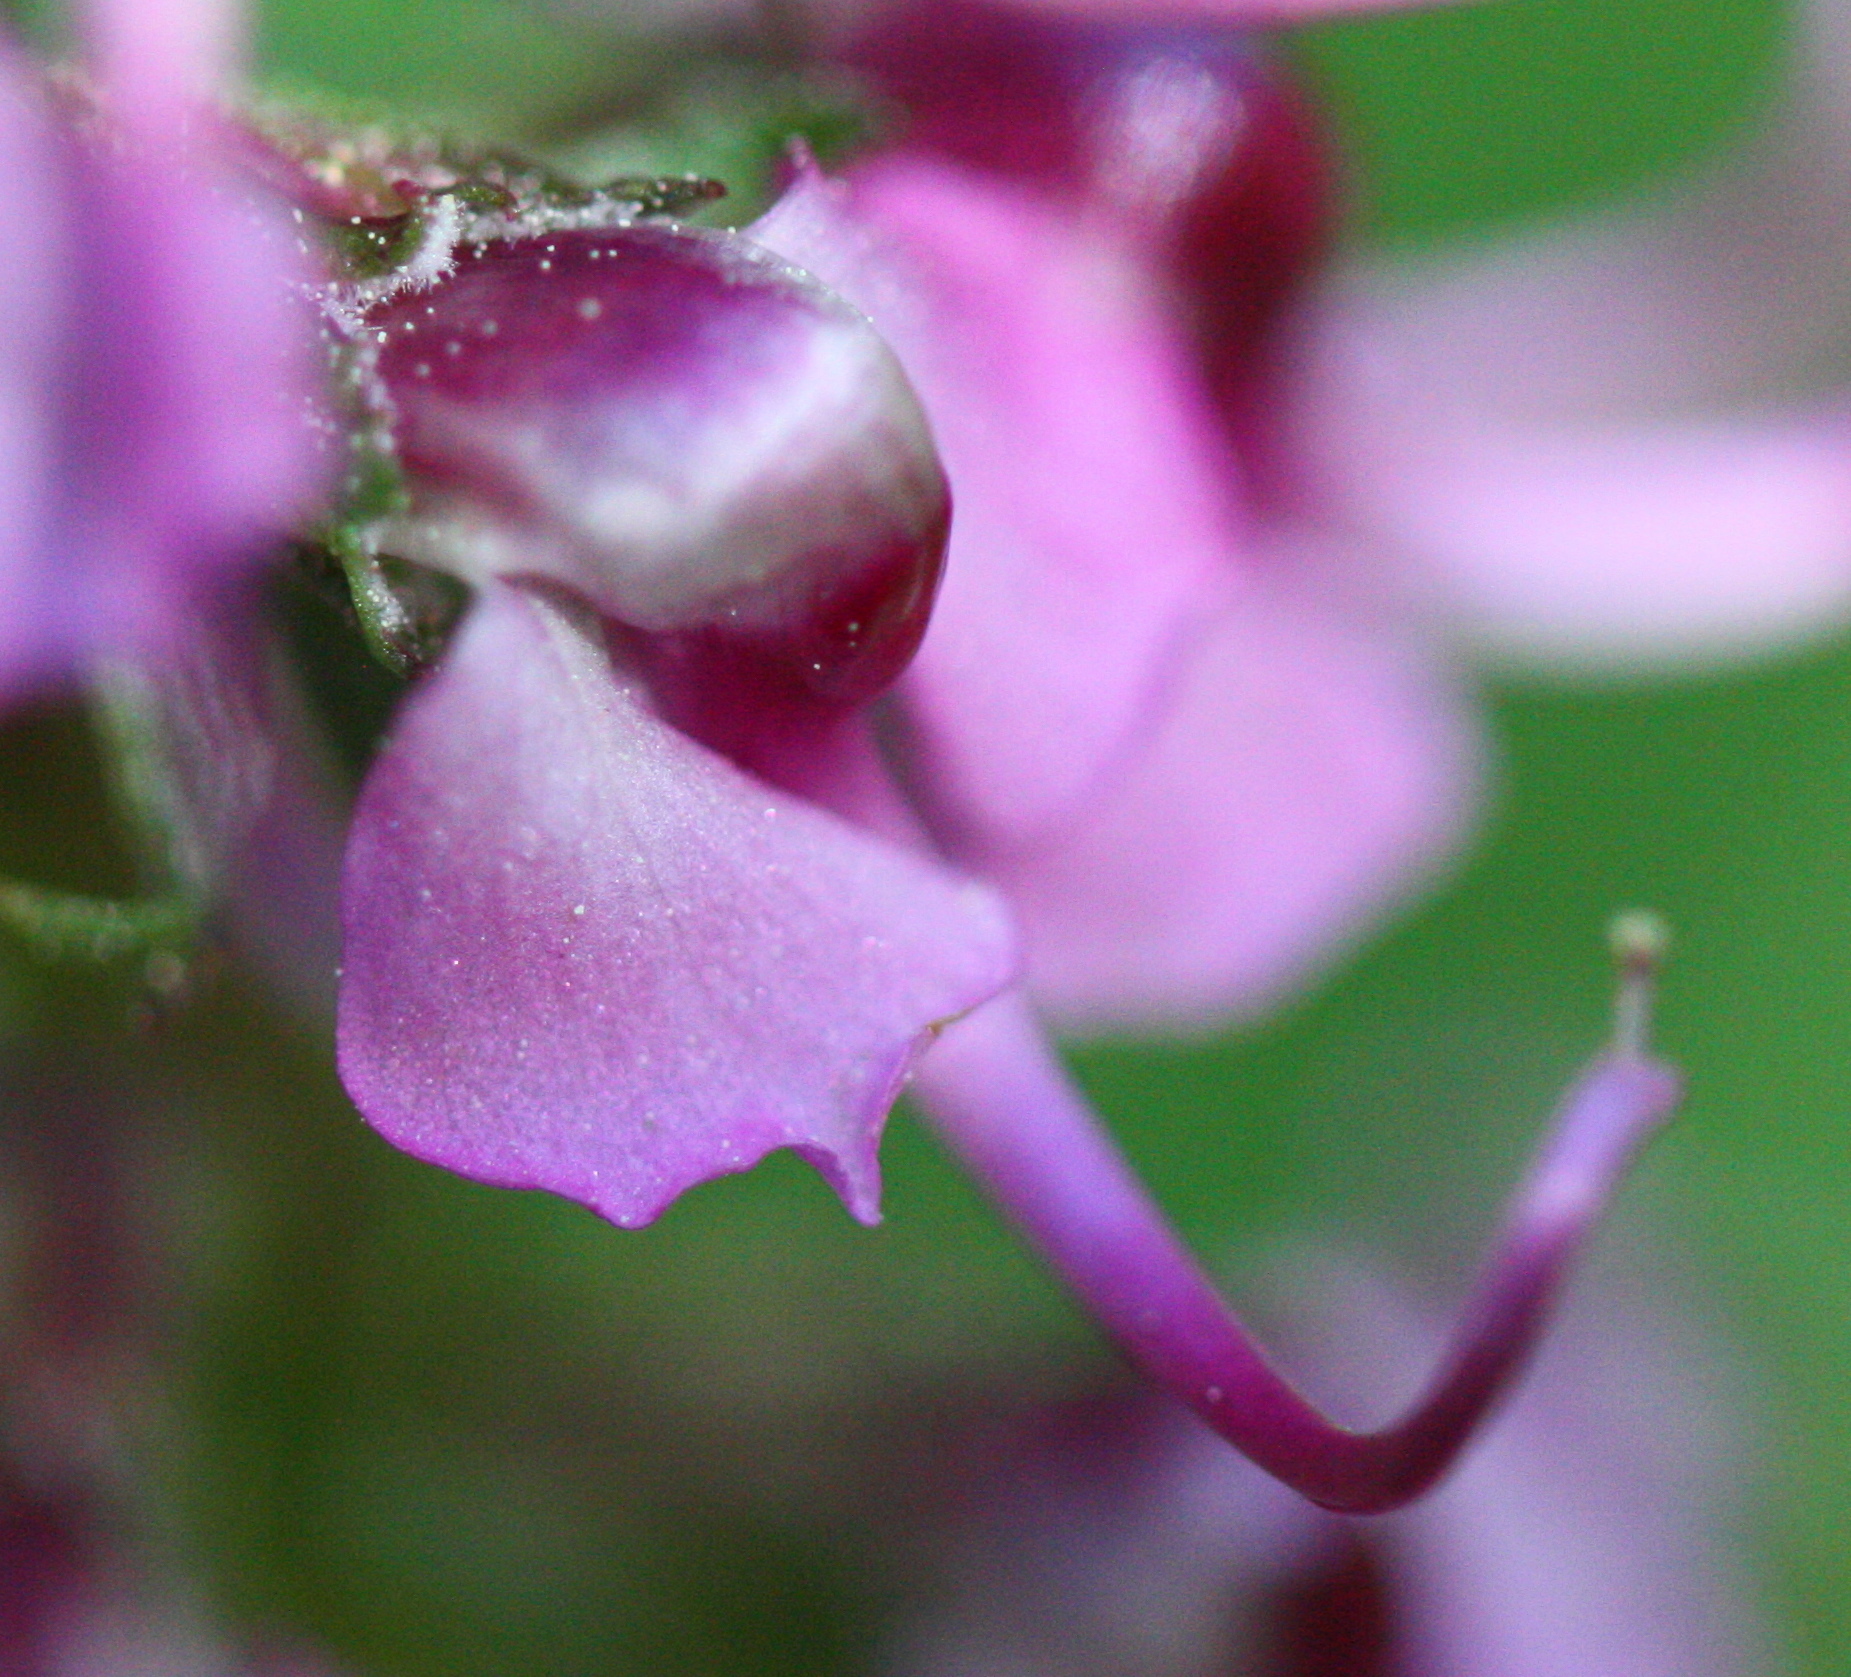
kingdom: Plantae
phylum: Tracheophyta
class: Magnoliopsida
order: Lamiales
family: Orobanchaceae
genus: Pedicularis
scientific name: Pedicularis groenlandica
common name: Elephant's-head
